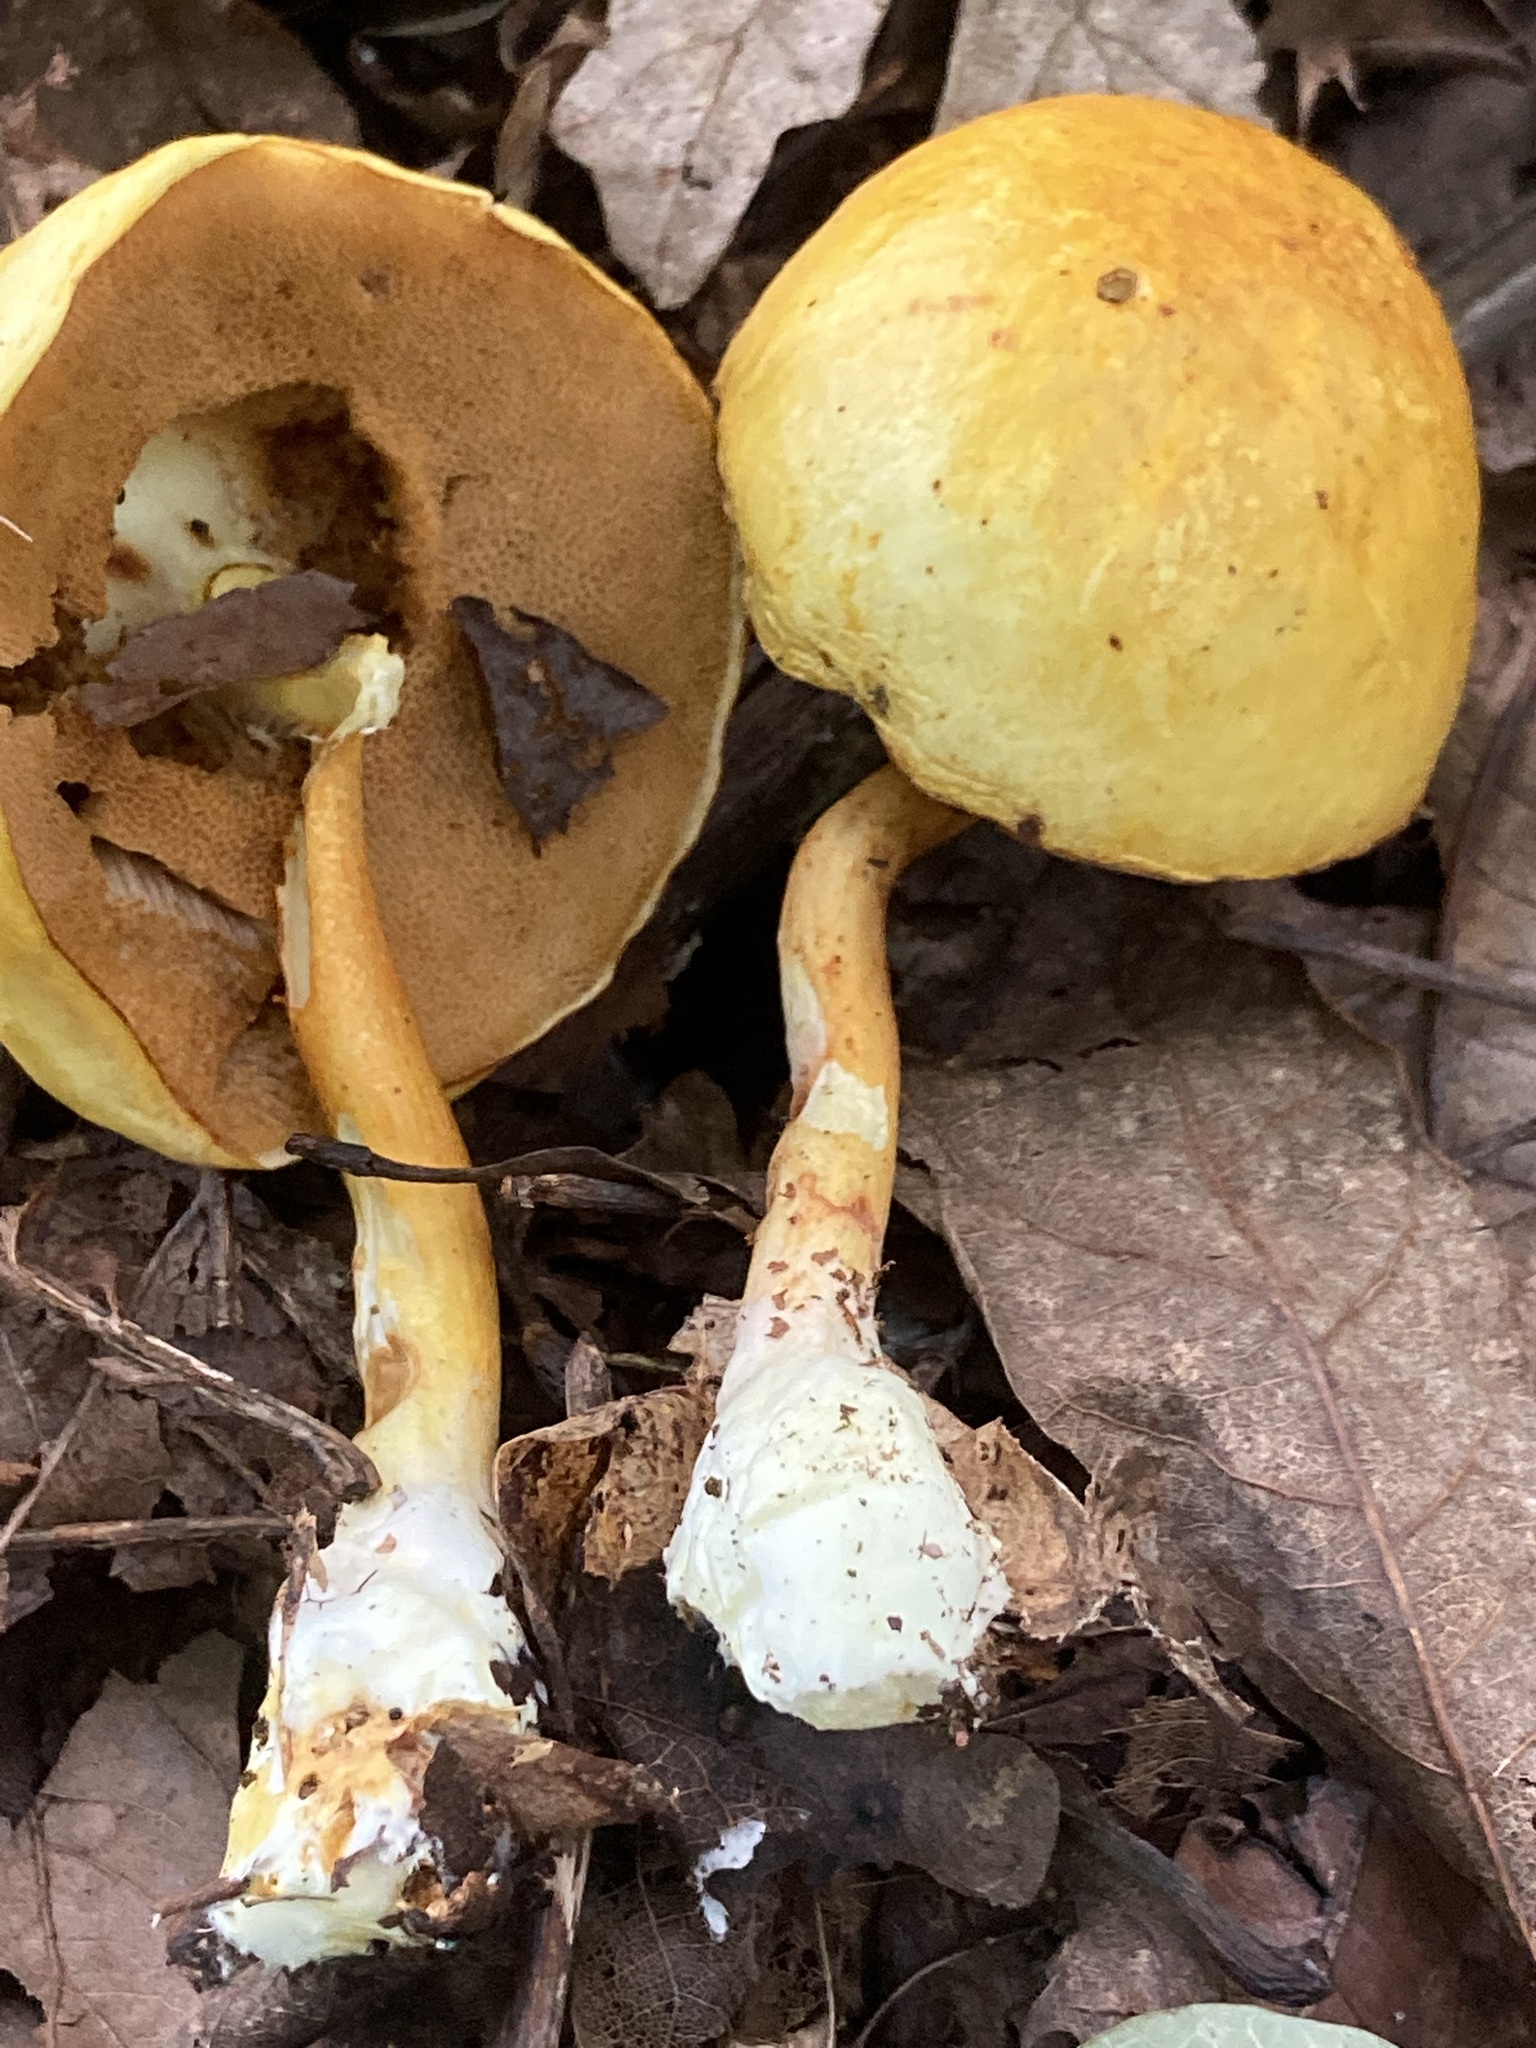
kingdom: Fungi
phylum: Basidiomycota
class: Agaricomycetes
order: Boletales
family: Boletaceae
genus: Pulveroboletus
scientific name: Pulveroboletus curtisii
